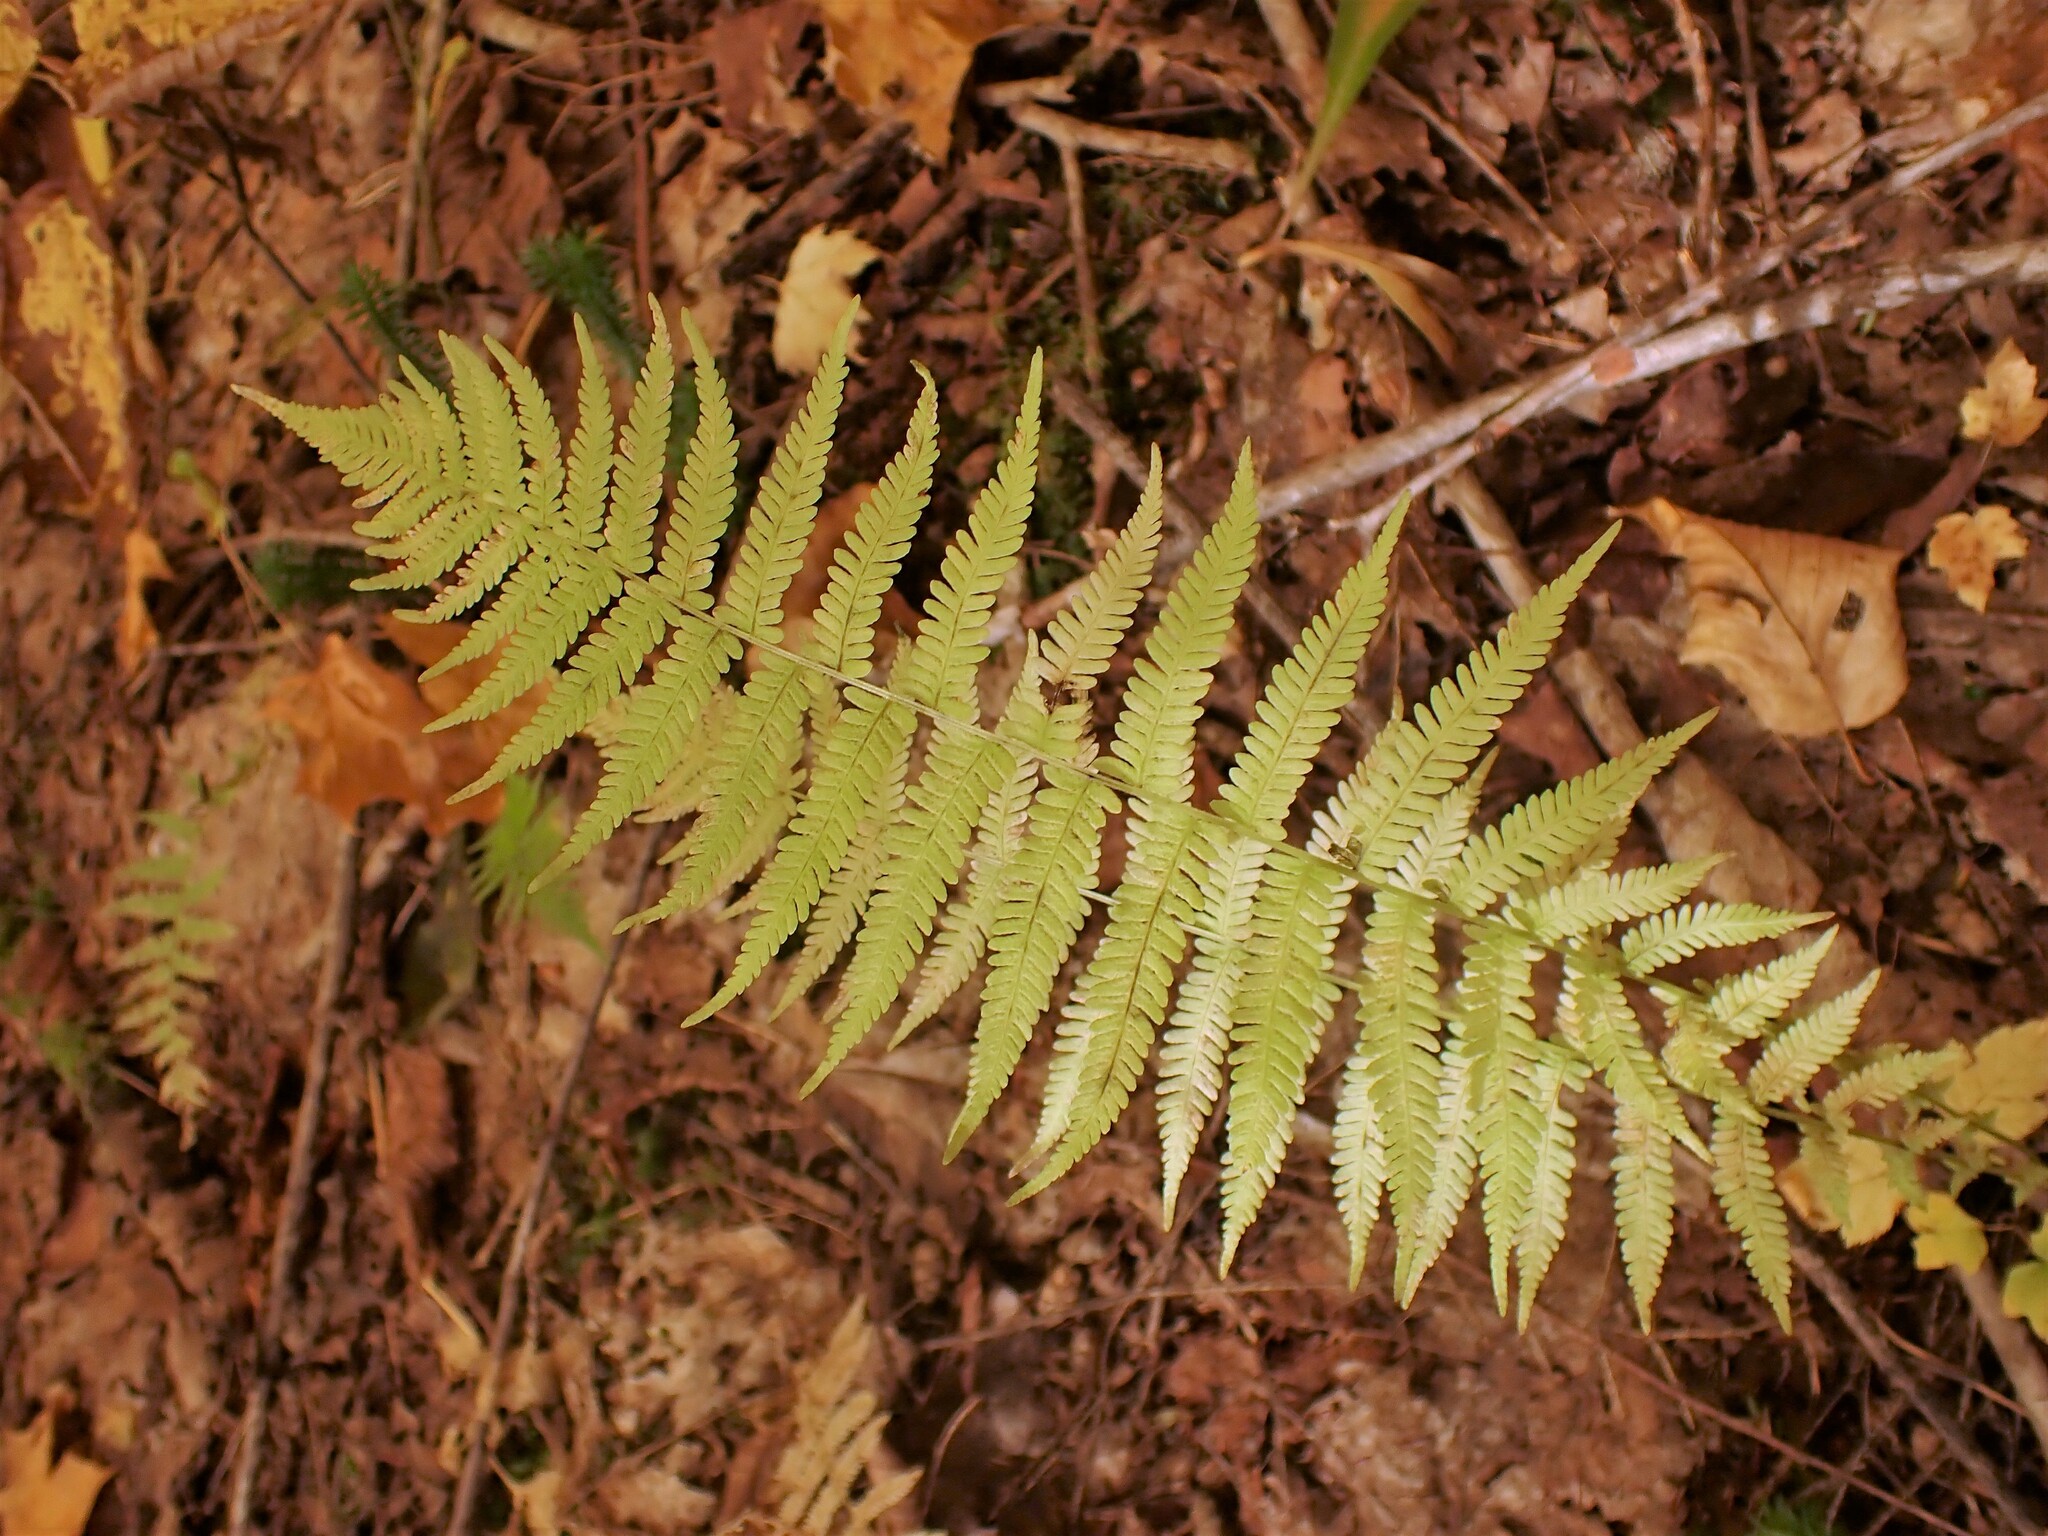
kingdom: Plantae
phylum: Tracheophyta
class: Polypodiopsida
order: Polypodiales
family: Thelypteridaceae
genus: Amauropelta
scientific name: Amauropelta noveboracensis
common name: New york fern
